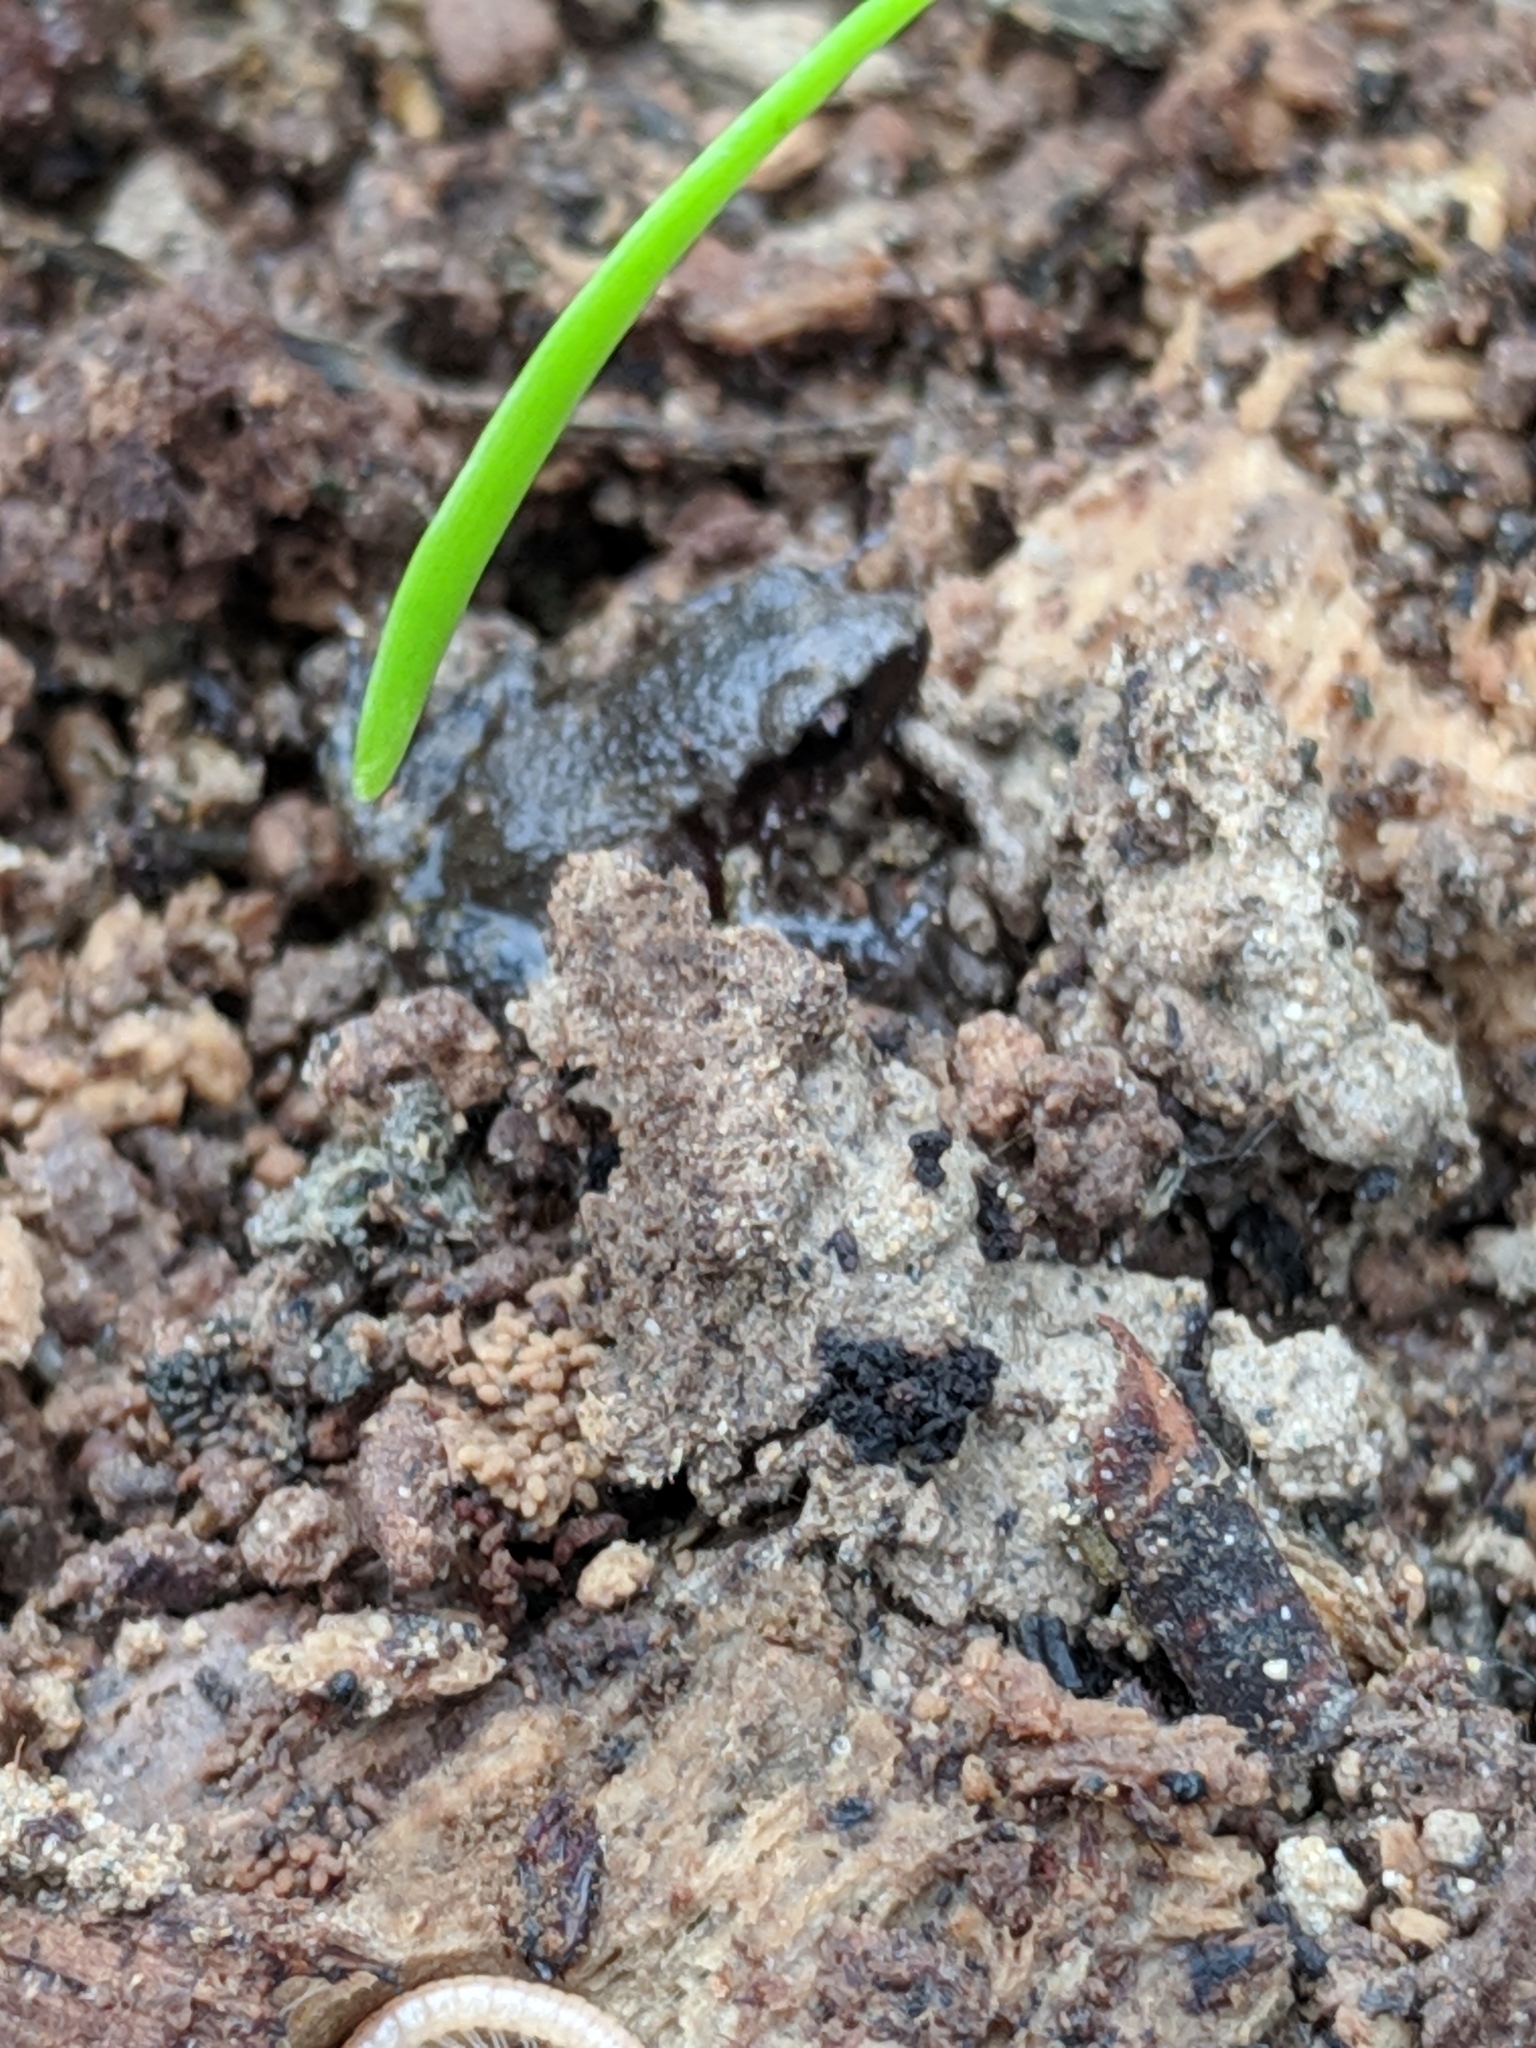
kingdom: Animalia
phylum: Chordata
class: Amphibia
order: Anura
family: Eleutherodactylidae
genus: Eleutherodactylus
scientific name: Eleutherodactylus campi
